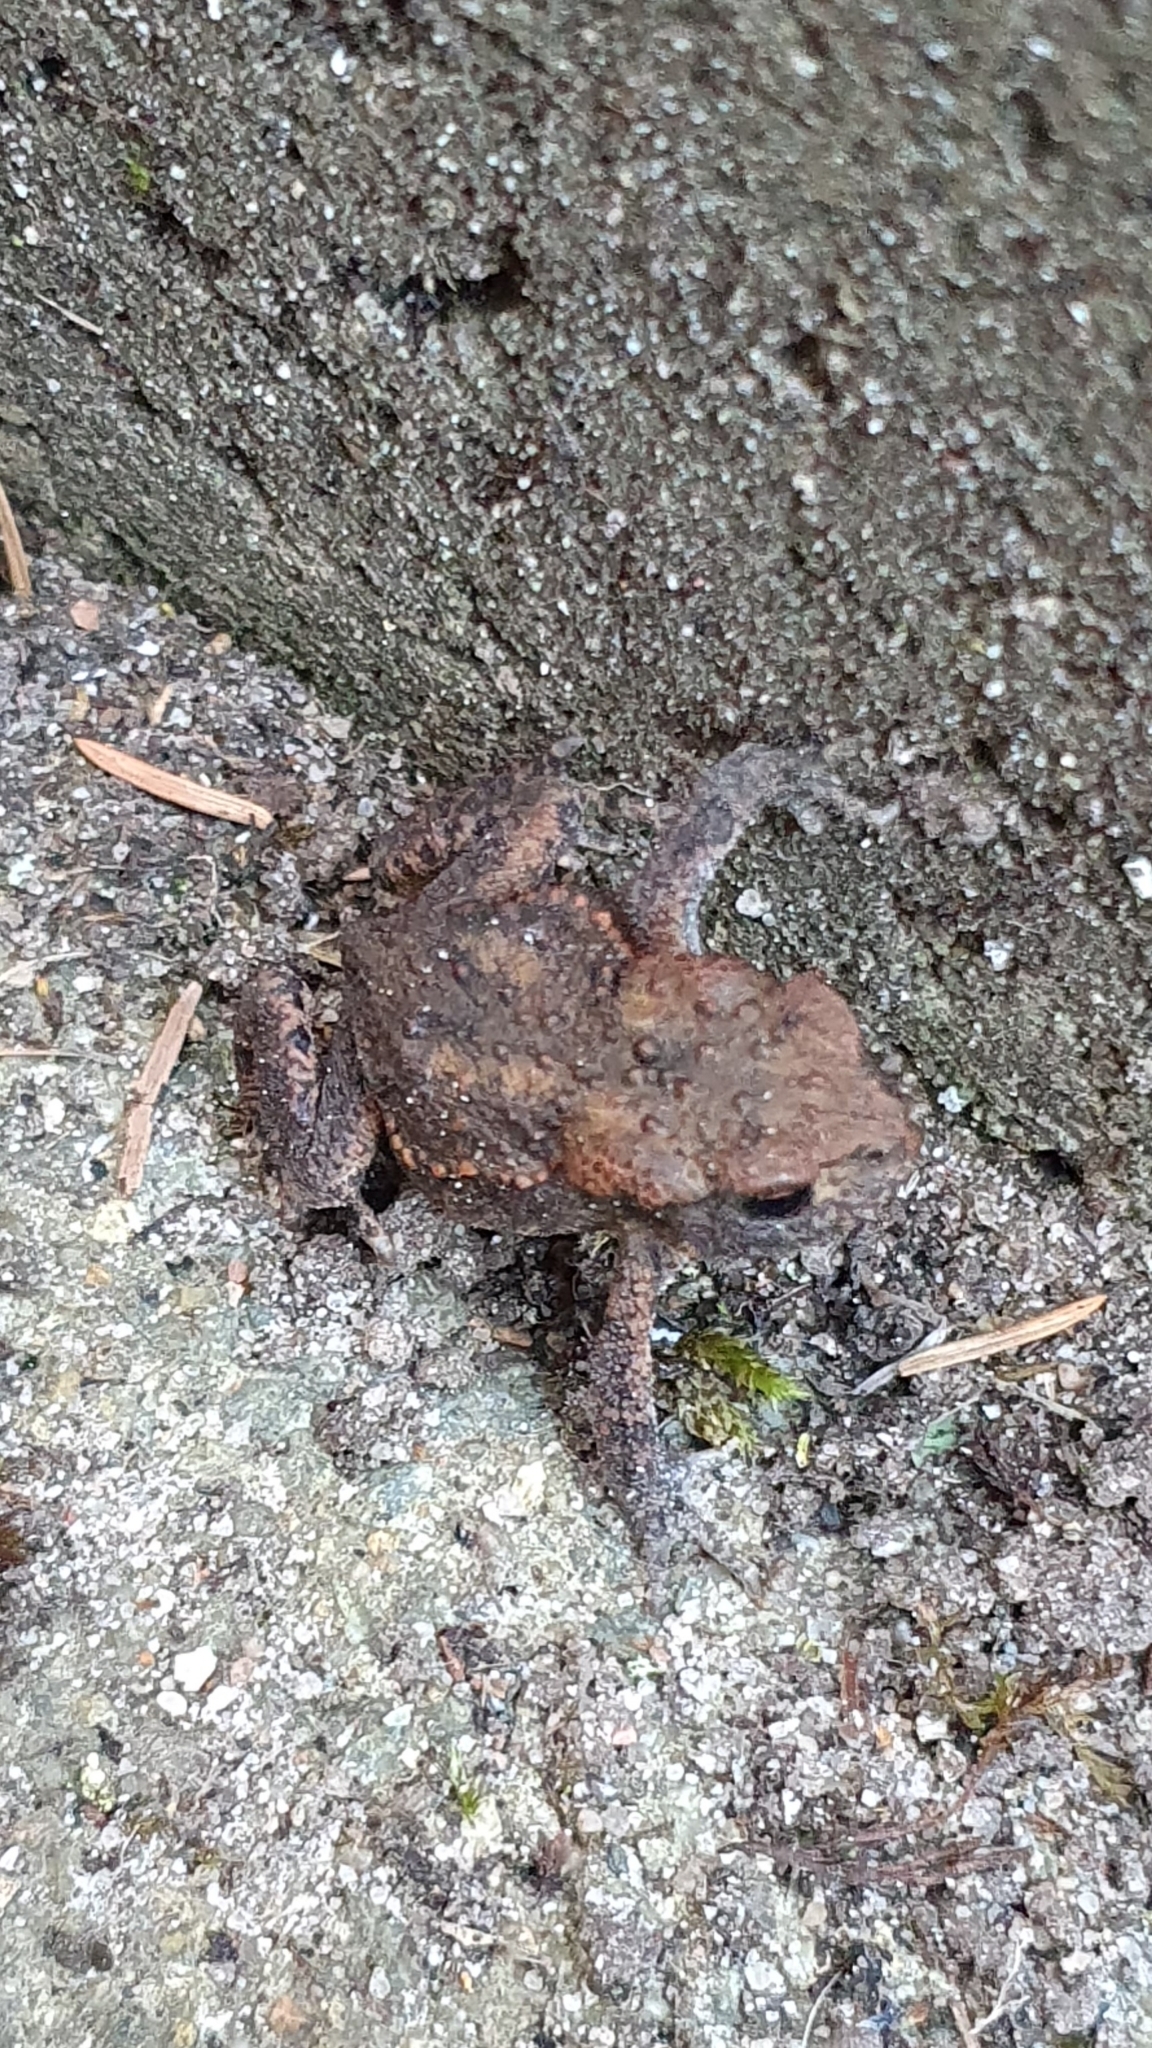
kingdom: Animalia
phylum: Chordata
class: Amphibia
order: Anura
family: Bufonidae
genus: Bufo
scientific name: Bufo bufo
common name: Common toad
